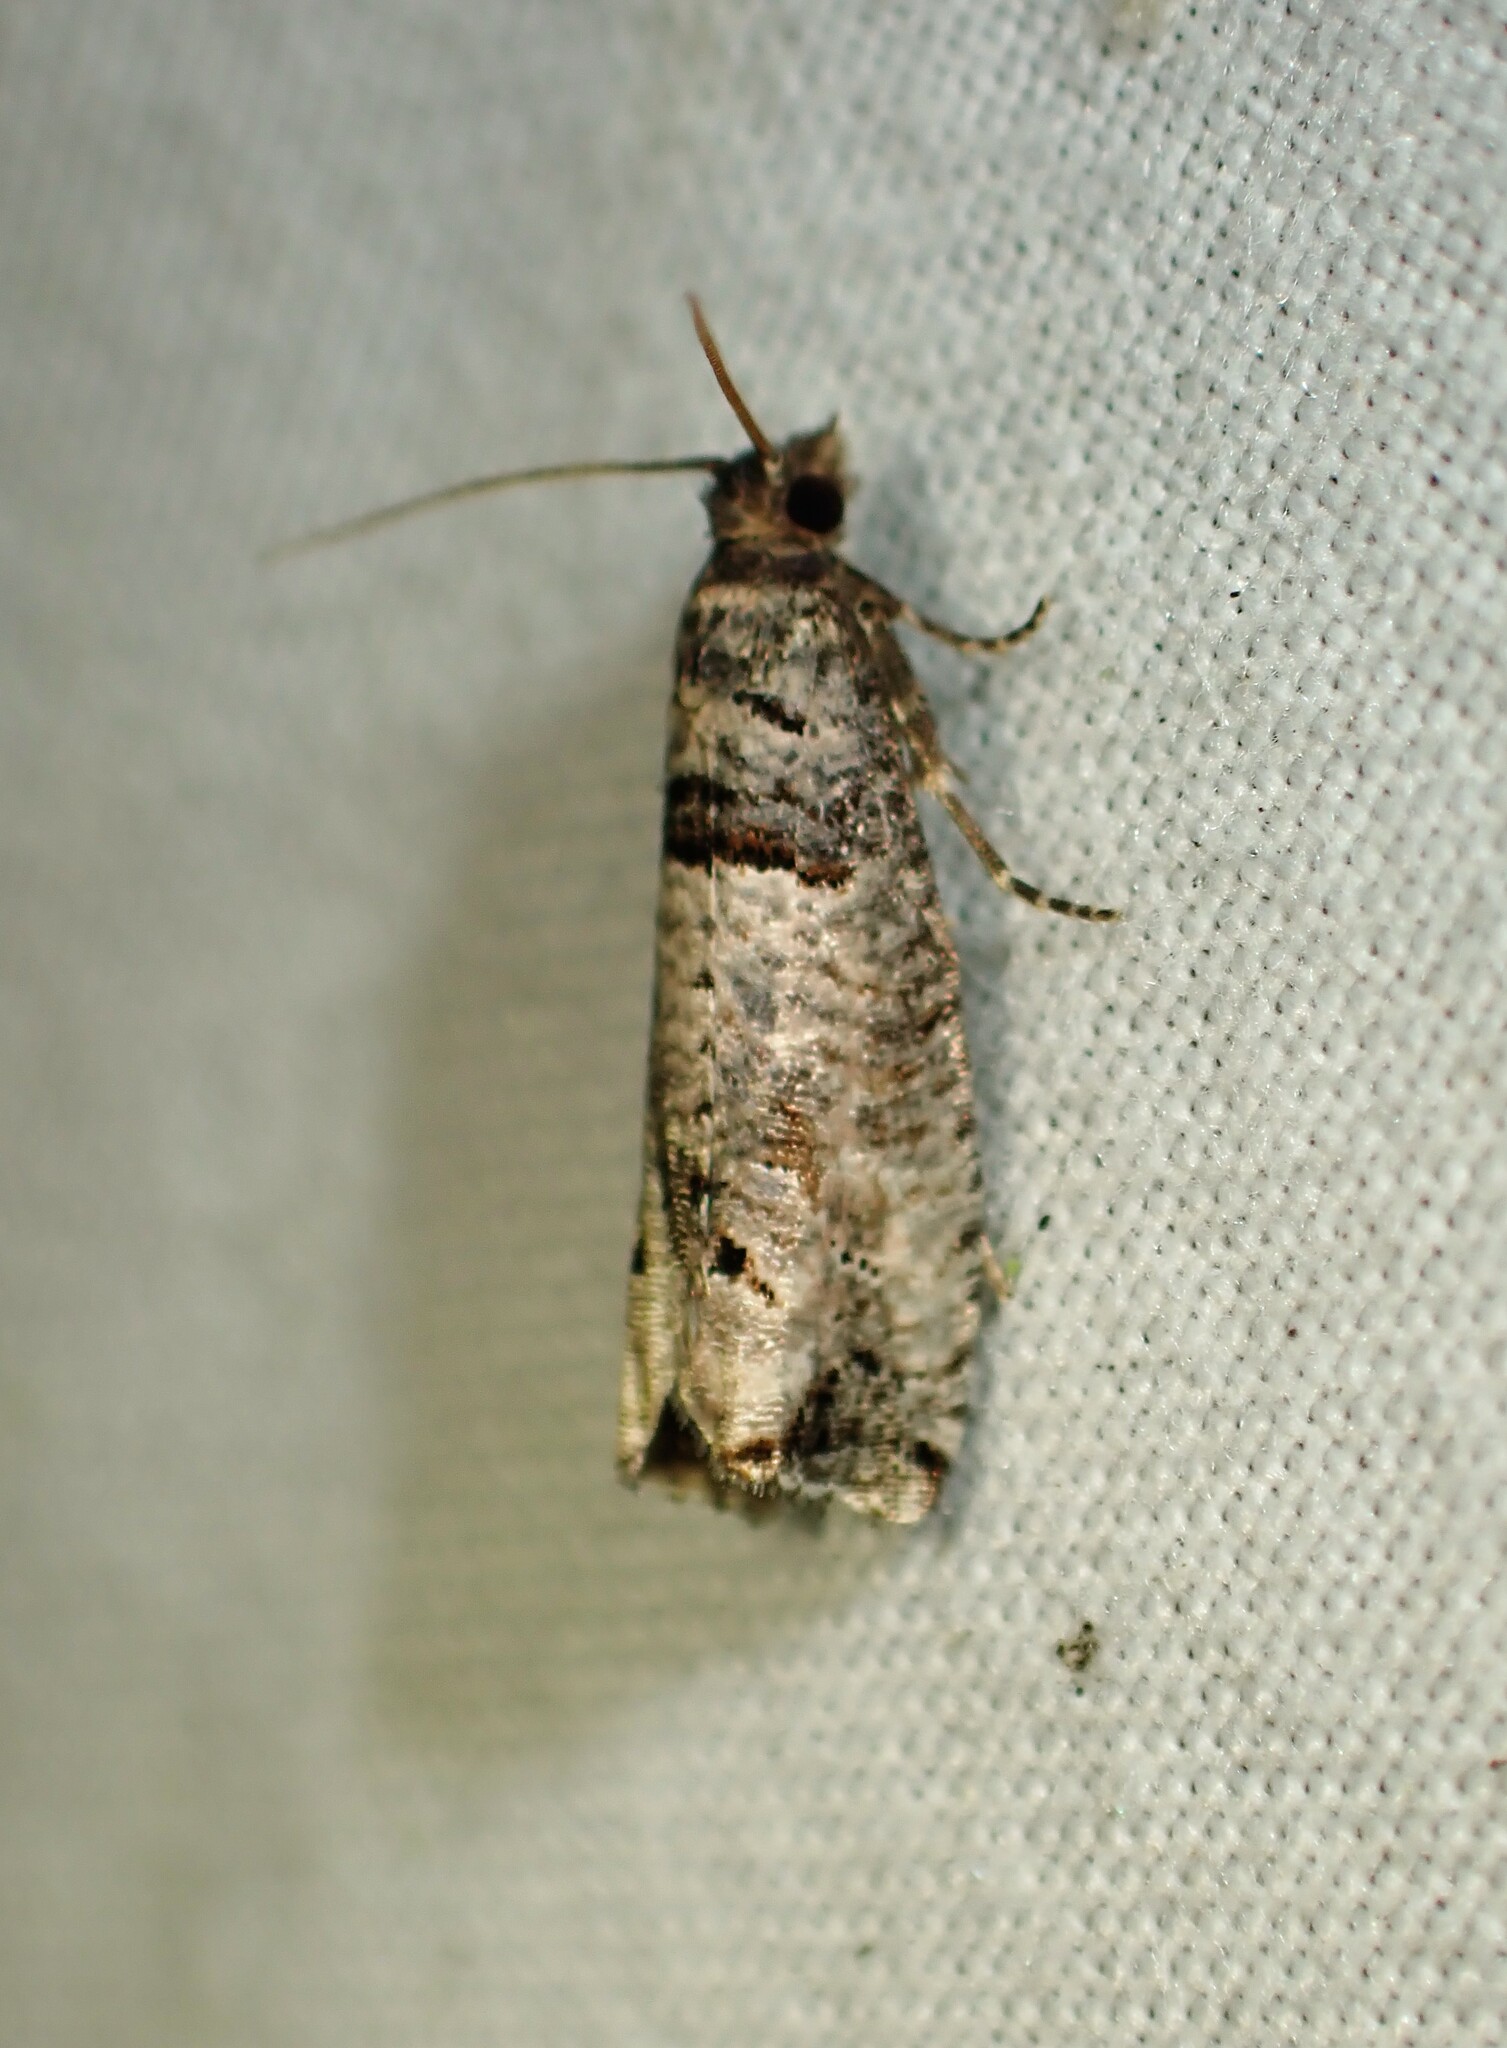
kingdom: Animalia
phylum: Arthropoda
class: Insecta
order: Lepidoptera
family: Tortricidae
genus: Notocelia
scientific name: Notocelia culminana
